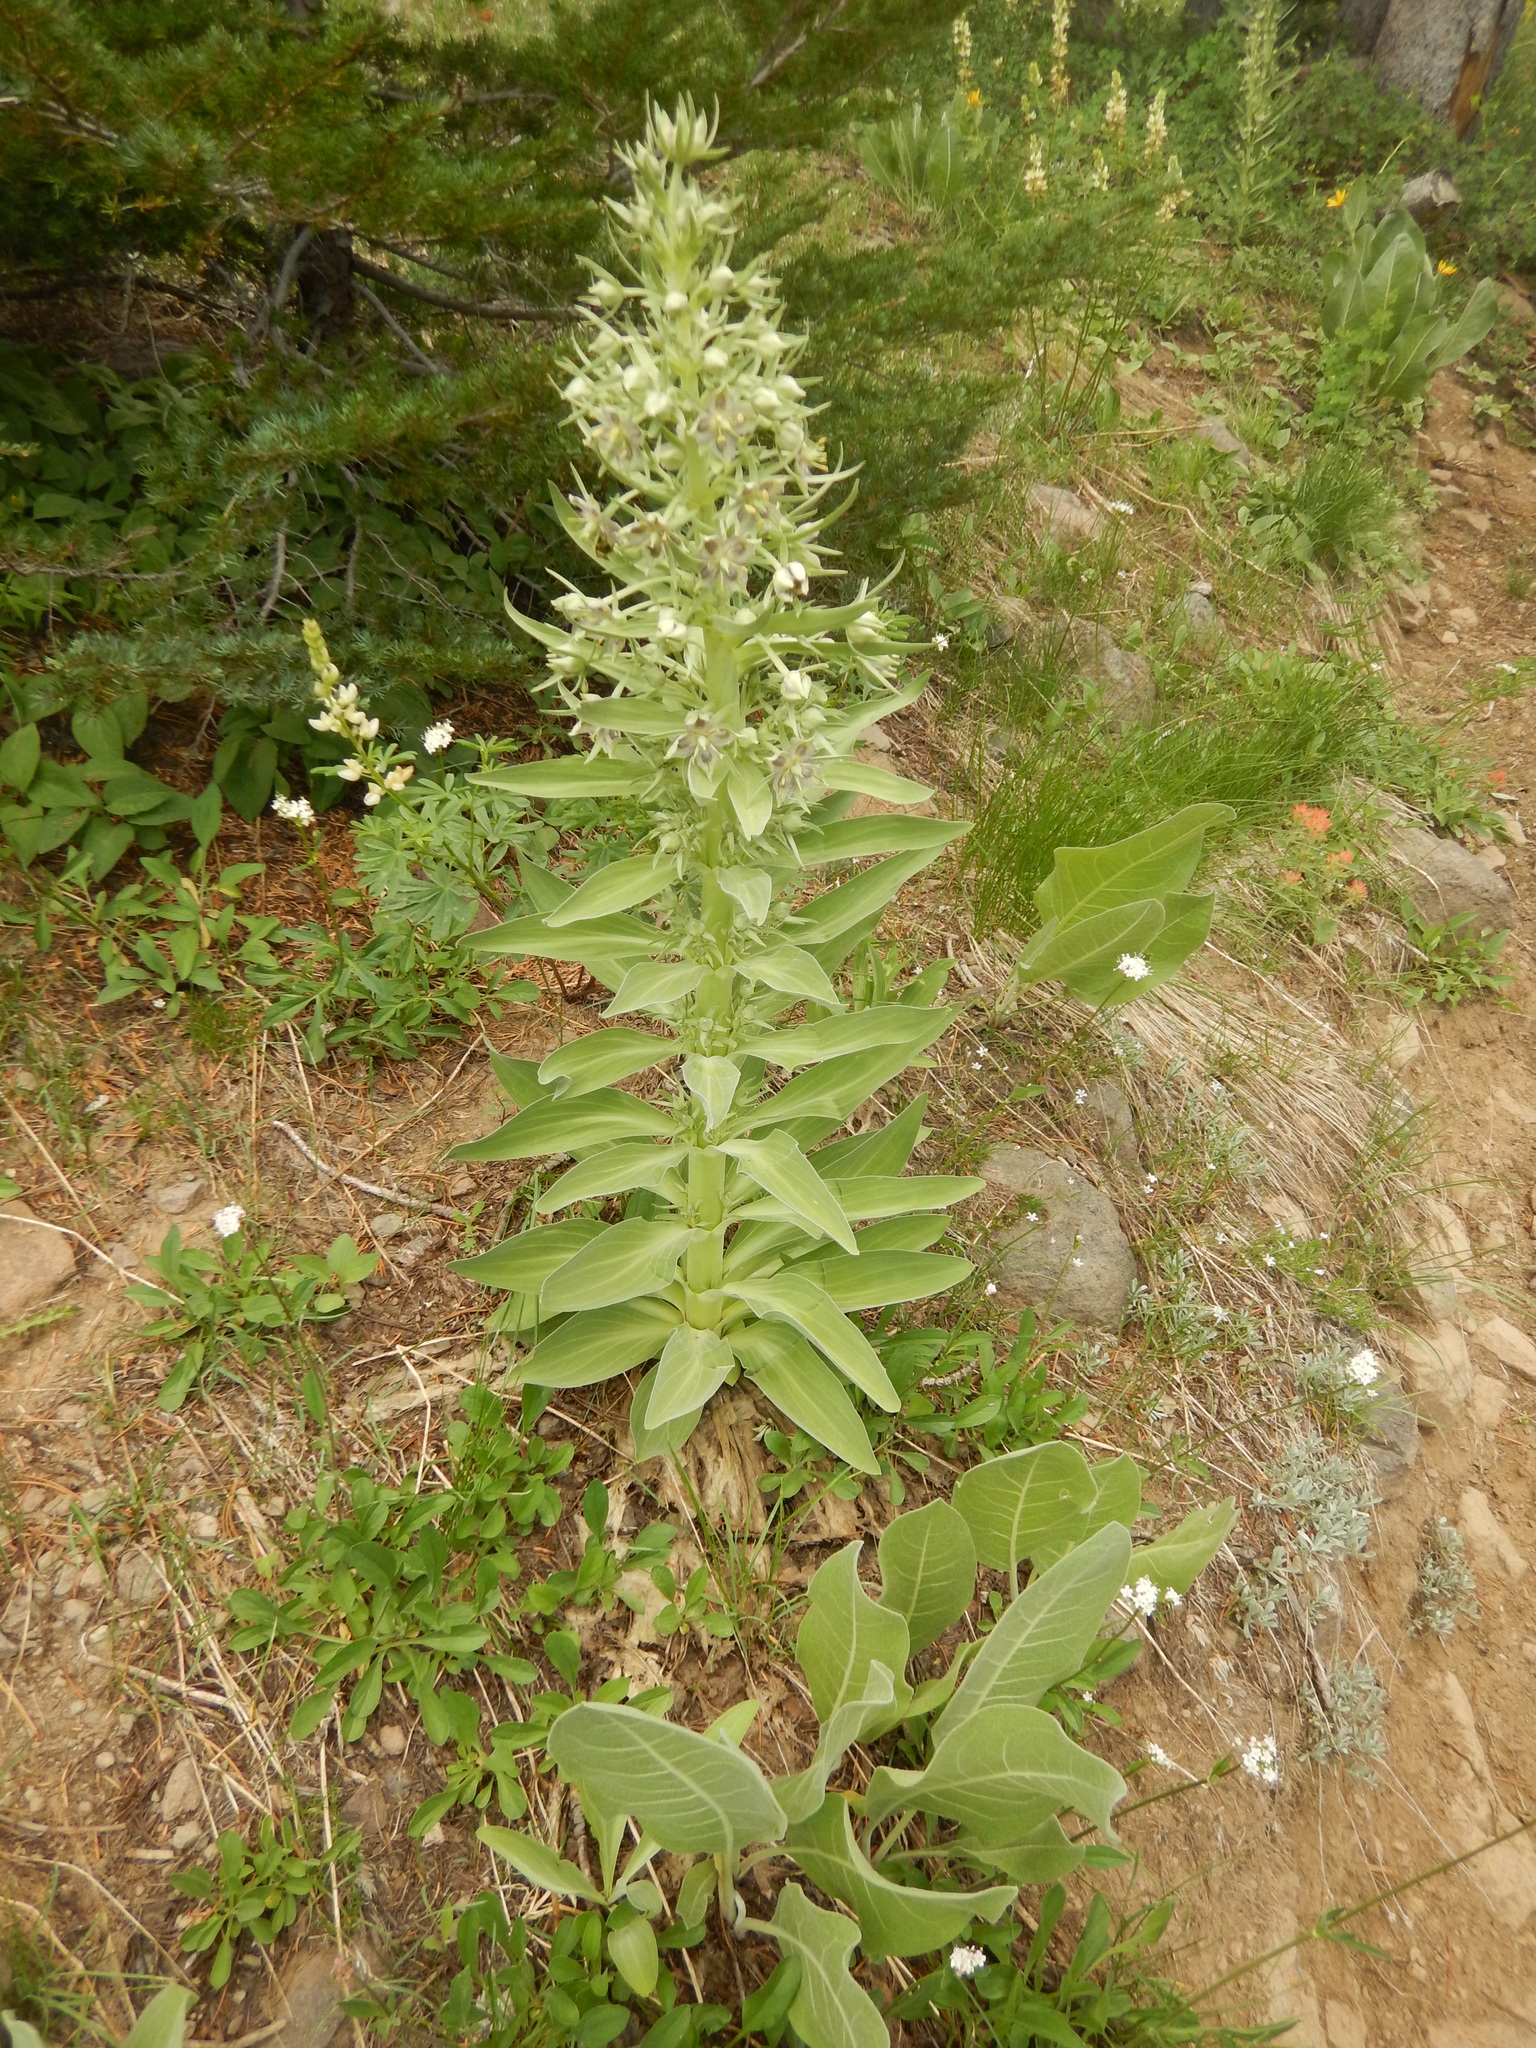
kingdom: Plantae
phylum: Tracheophyta
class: Magnoliopsida
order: Gentianales
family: Gentianaceae
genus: Frasera
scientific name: Frasera speciosa
